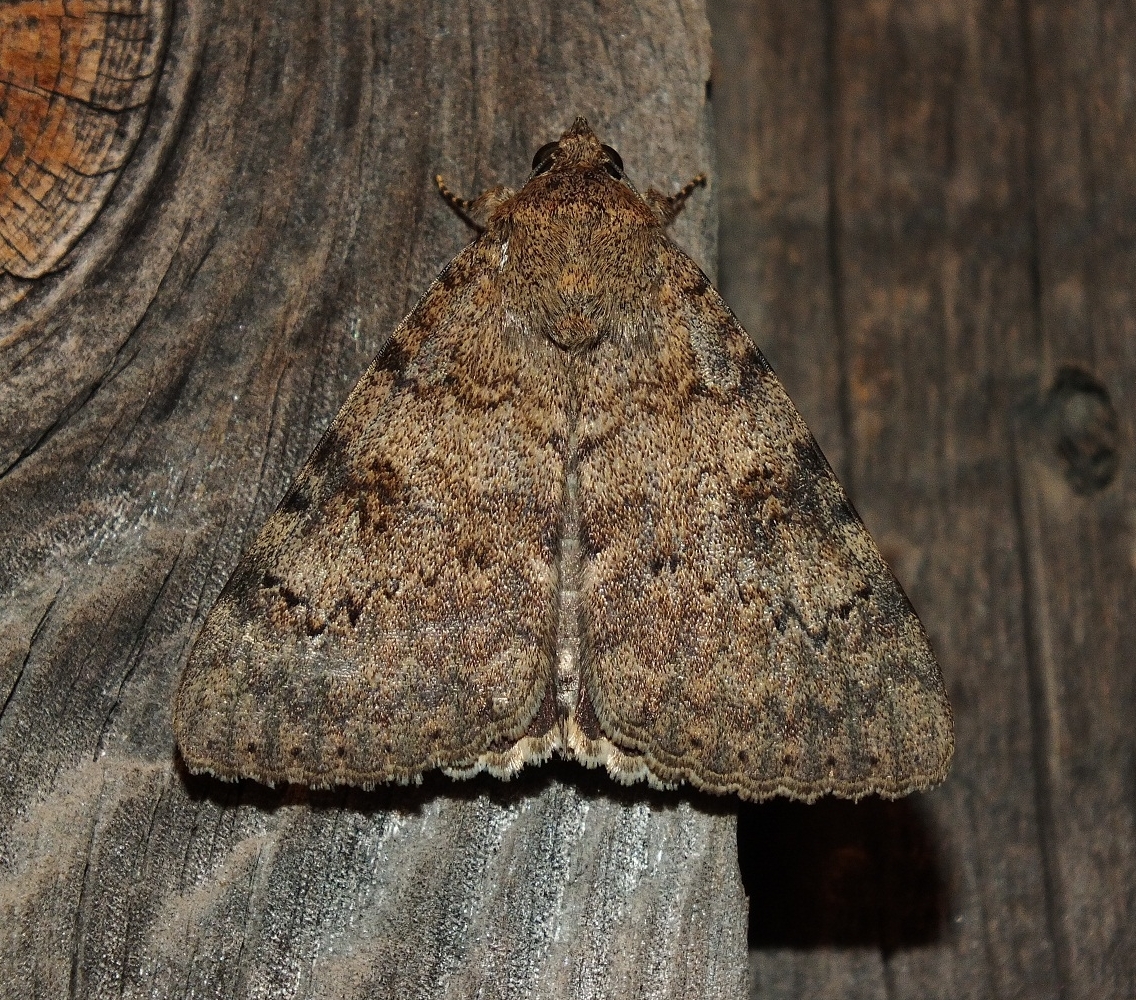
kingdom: Animalia
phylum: Arthropoda
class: Insecta
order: Lepidoptera
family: Erebidae
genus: Catocala
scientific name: Catocala puerpera
